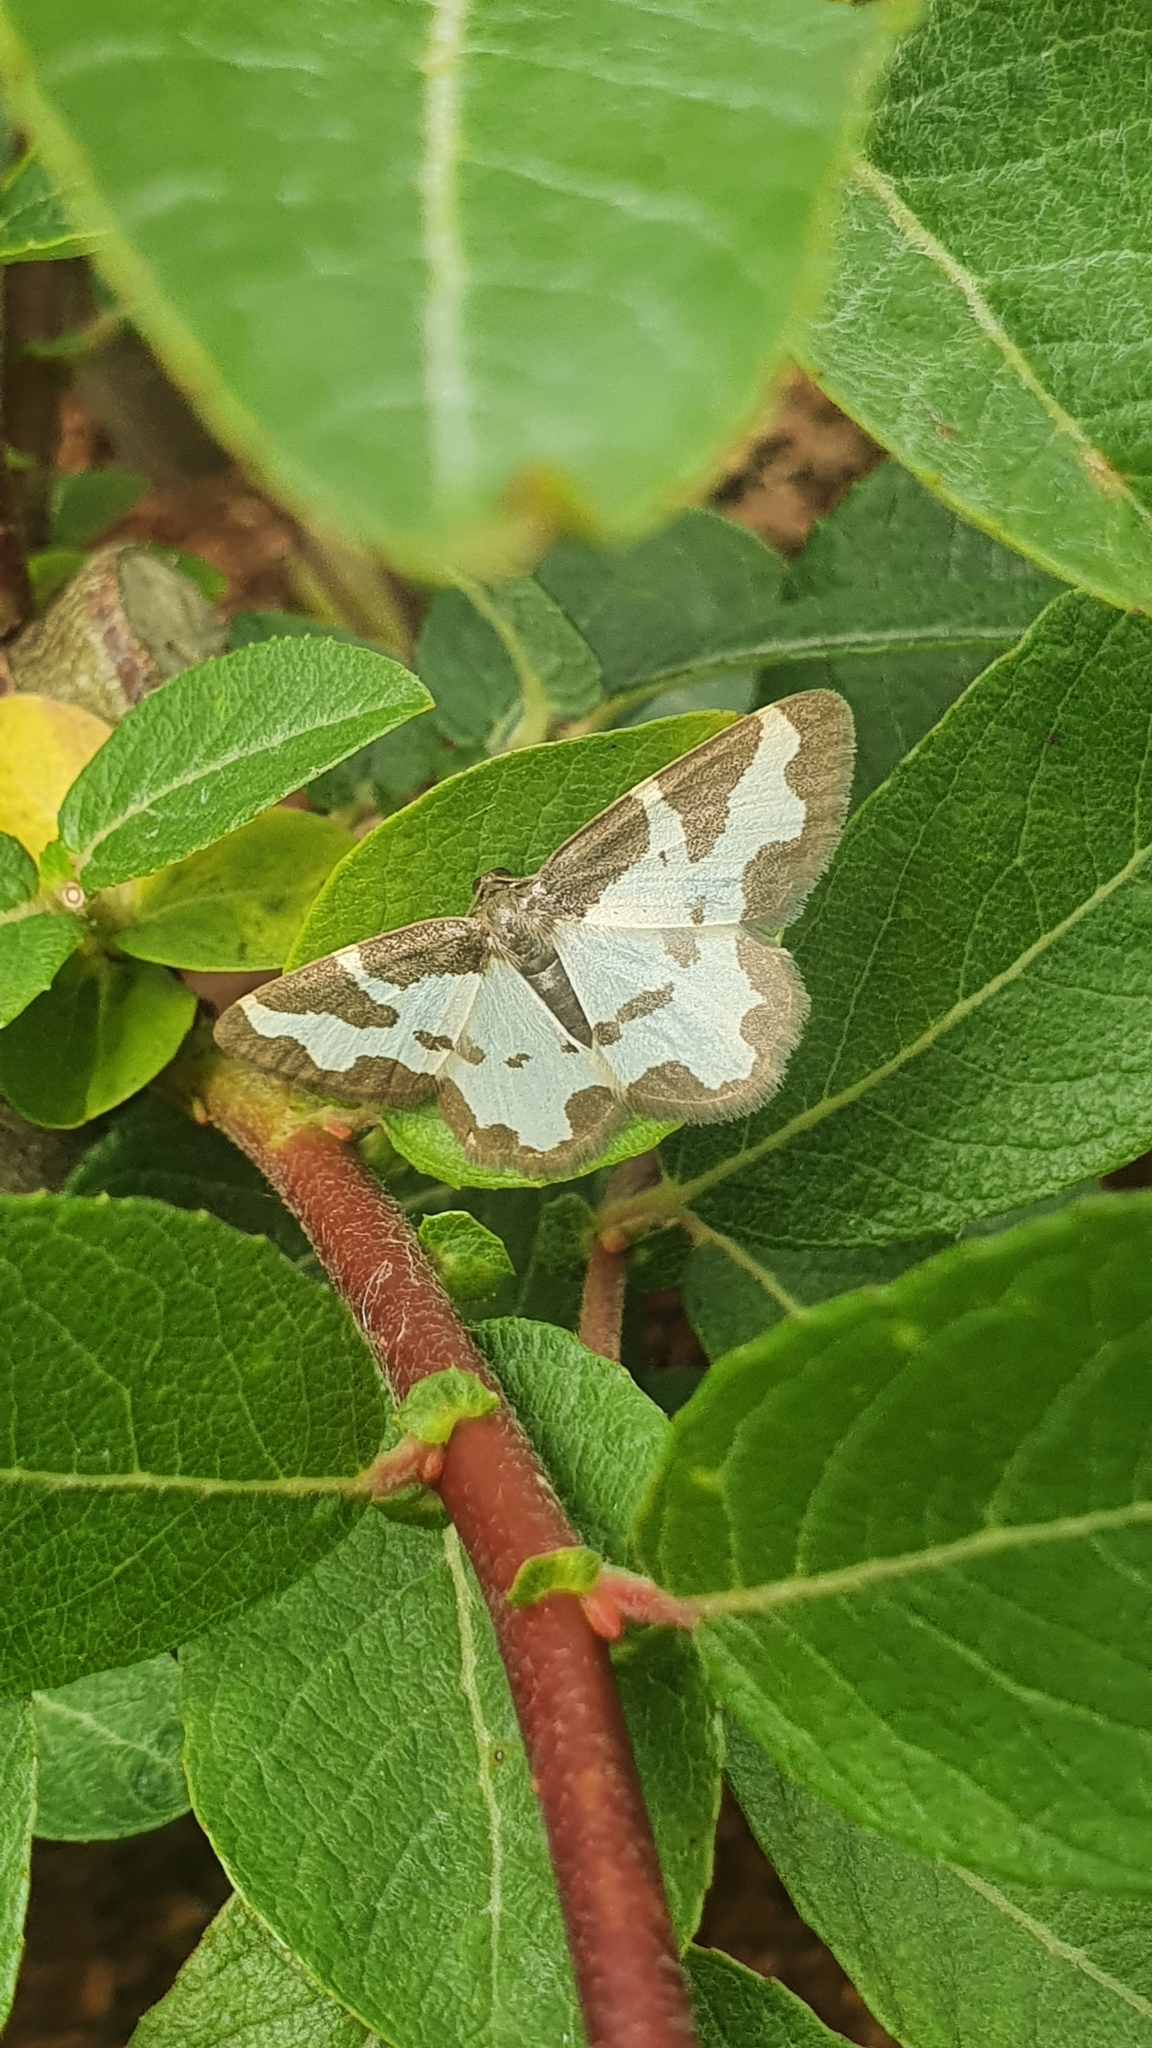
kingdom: Animalia
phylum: Arthropoda
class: Insecta
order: Lepidoptera
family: Geometridae
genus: Lomaspilis
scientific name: Lomaspilis marginata
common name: Clouded border
